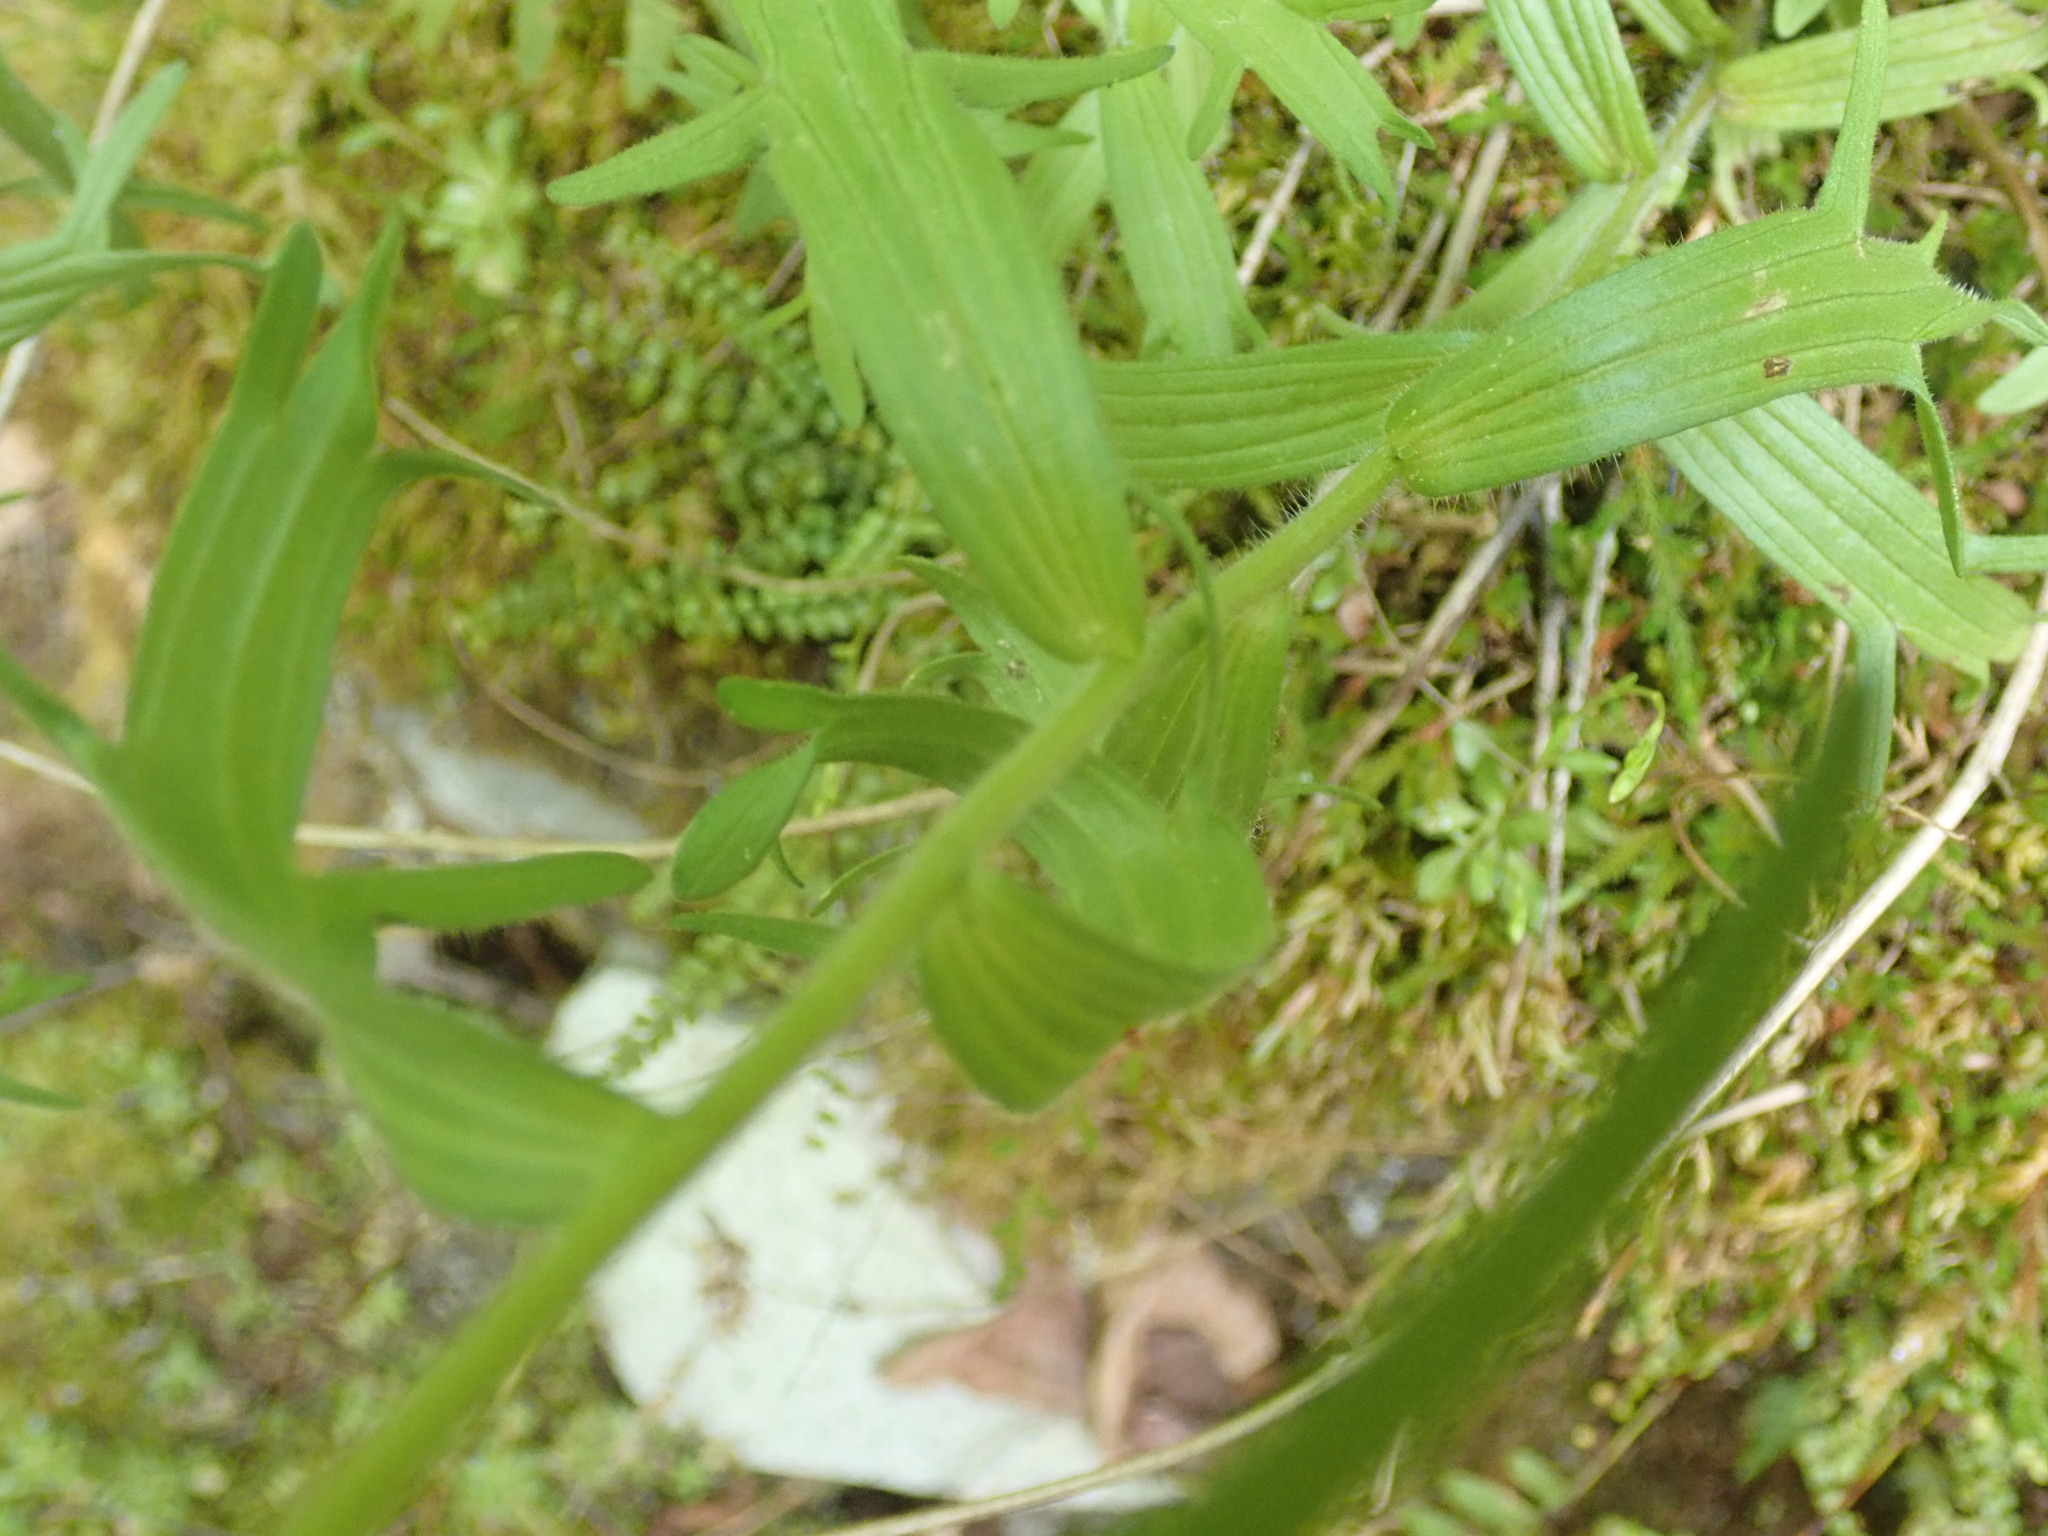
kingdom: Plantae
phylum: Tracheophyta
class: Magnoliopsida
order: Lamiales
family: Orobanchaceae
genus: Castilleja
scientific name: Castilleja hispida
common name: Bristly paintbrush
